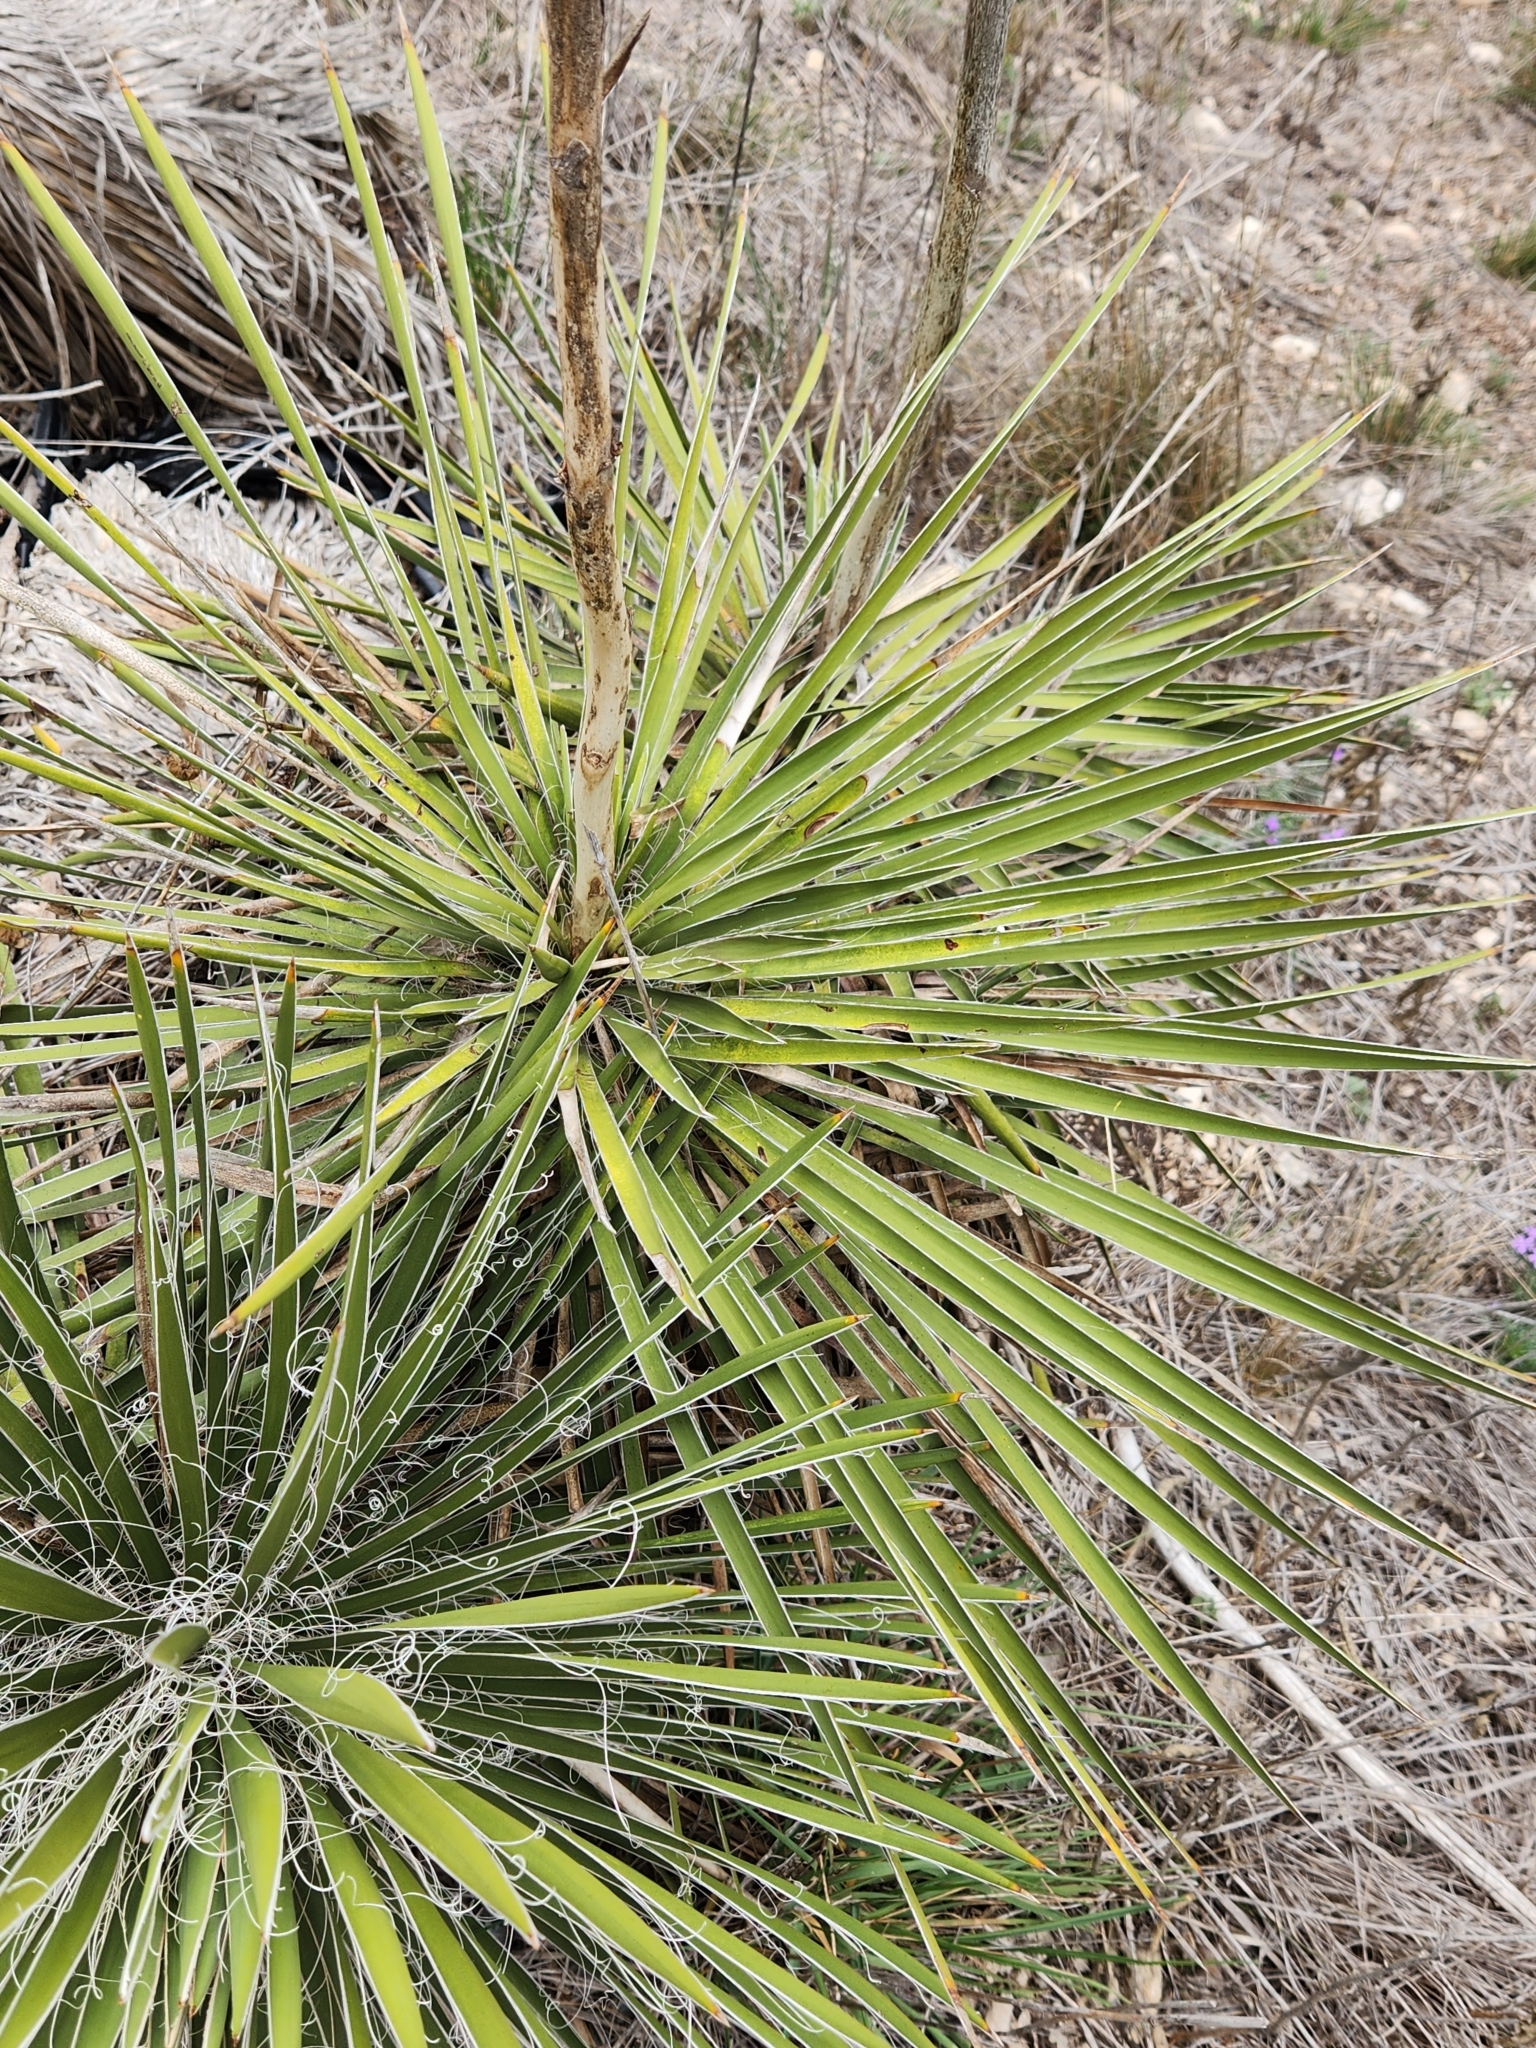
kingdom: Plantae
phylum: Tracheophyta
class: Liliopsida
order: Asparagales
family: Asparagaceae
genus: Yucca
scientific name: Yucca constricta
